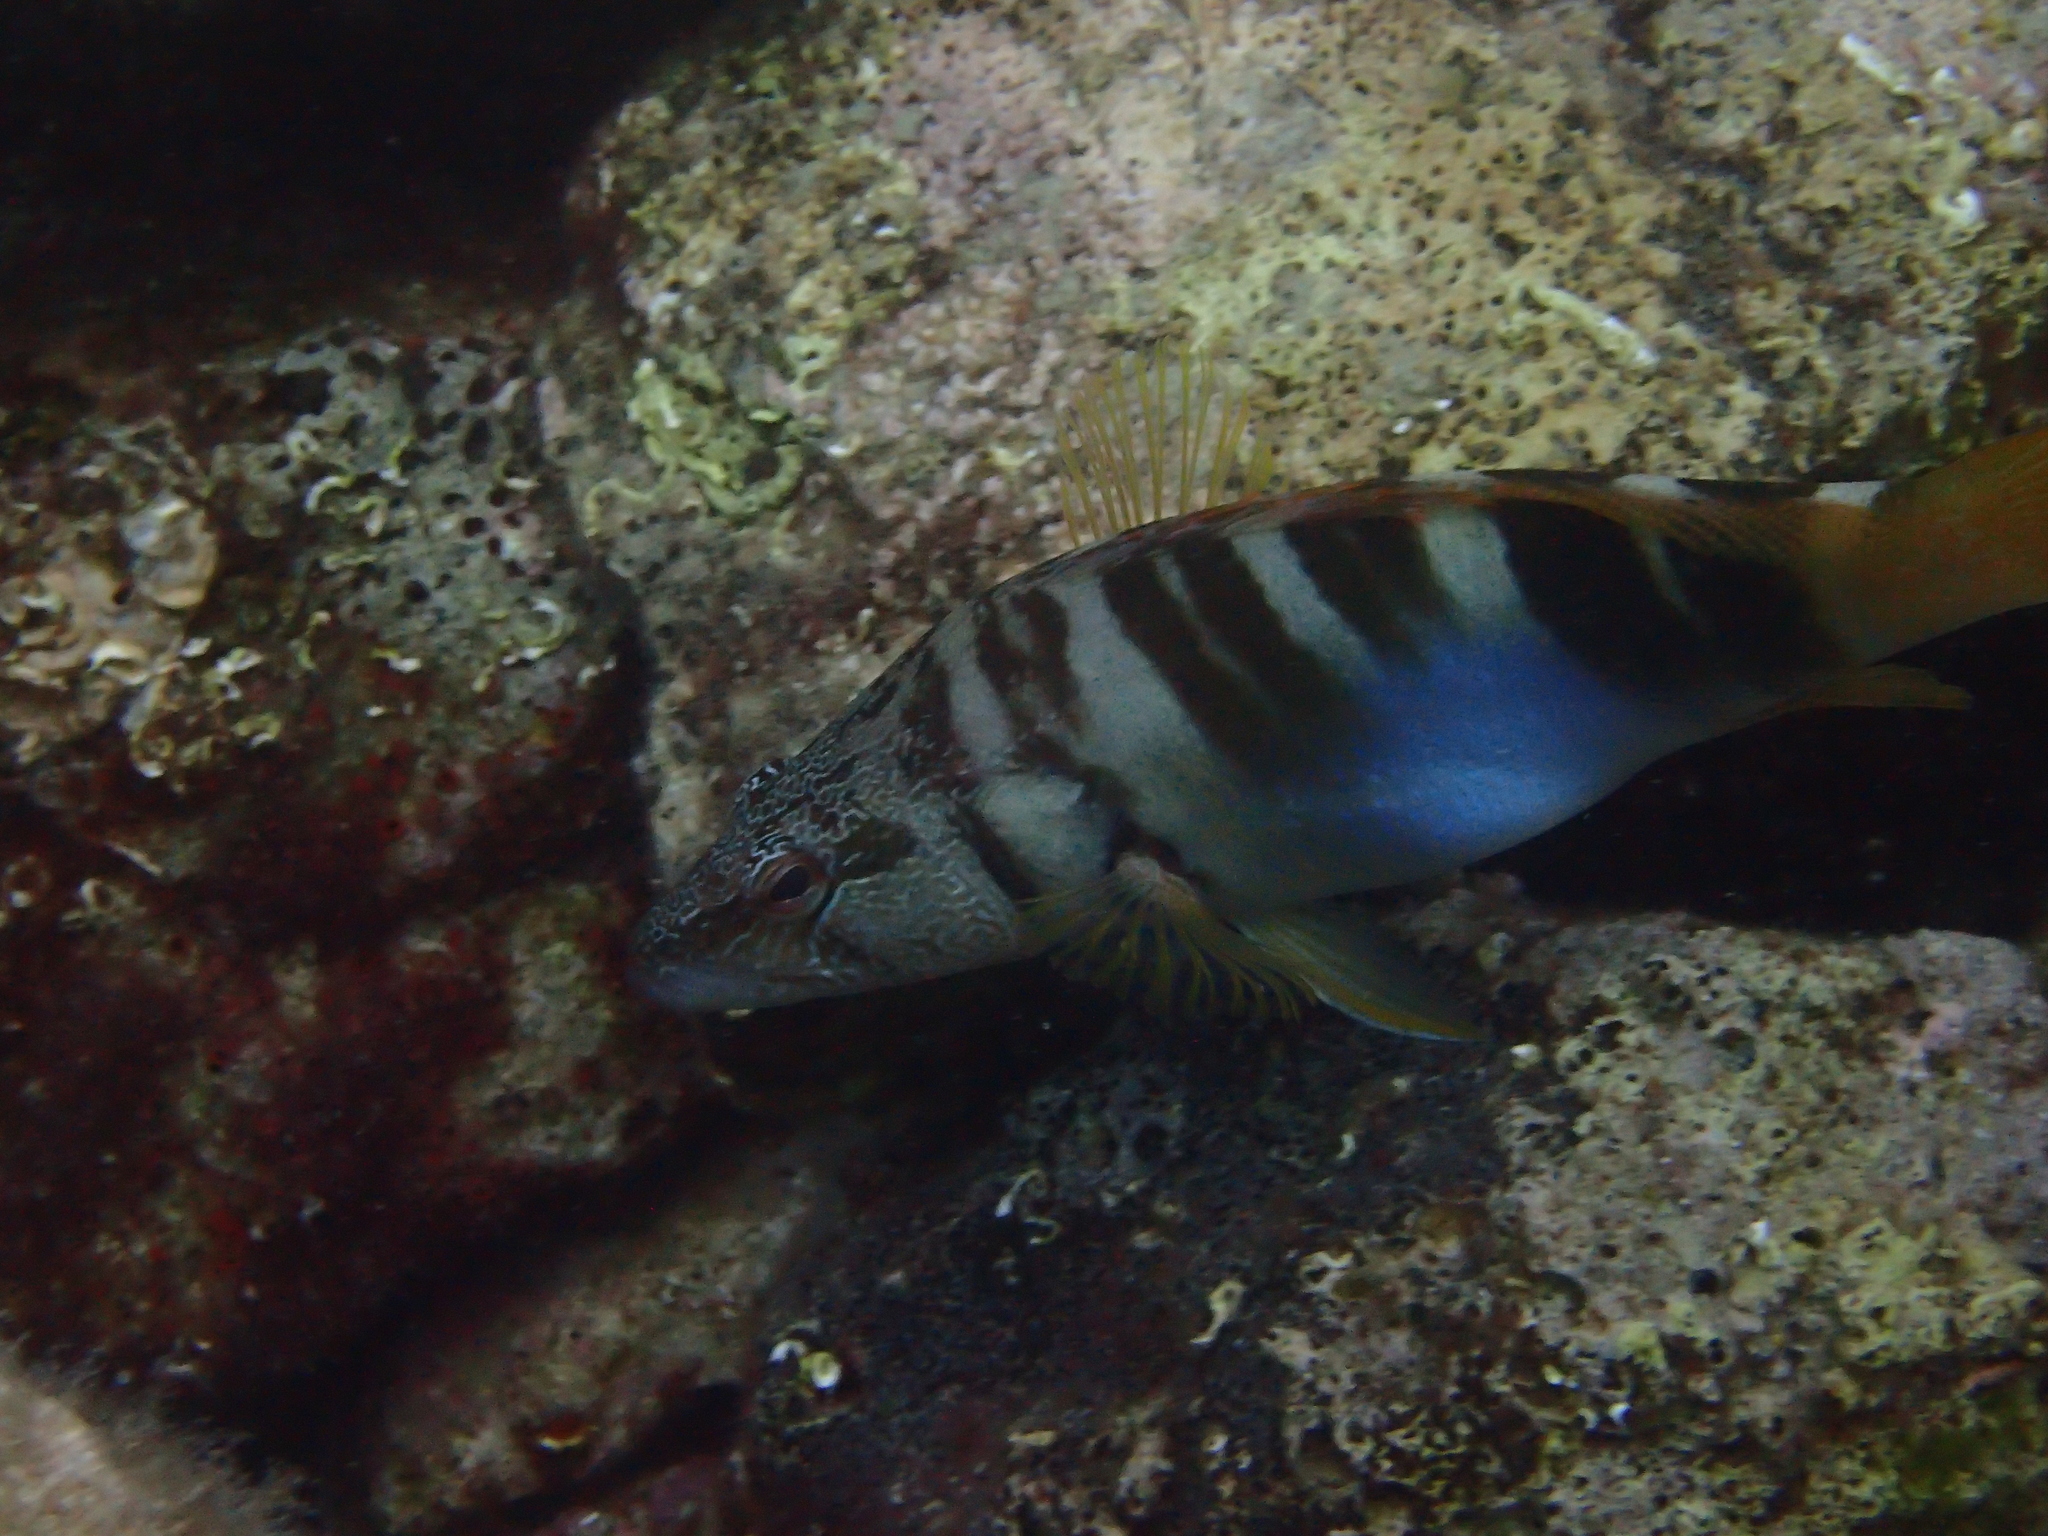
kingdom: Animalia
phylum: Chordata
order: Perciformes
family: Serranidae
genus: Serranus
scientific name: Serranus scriba
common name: Painted comber
